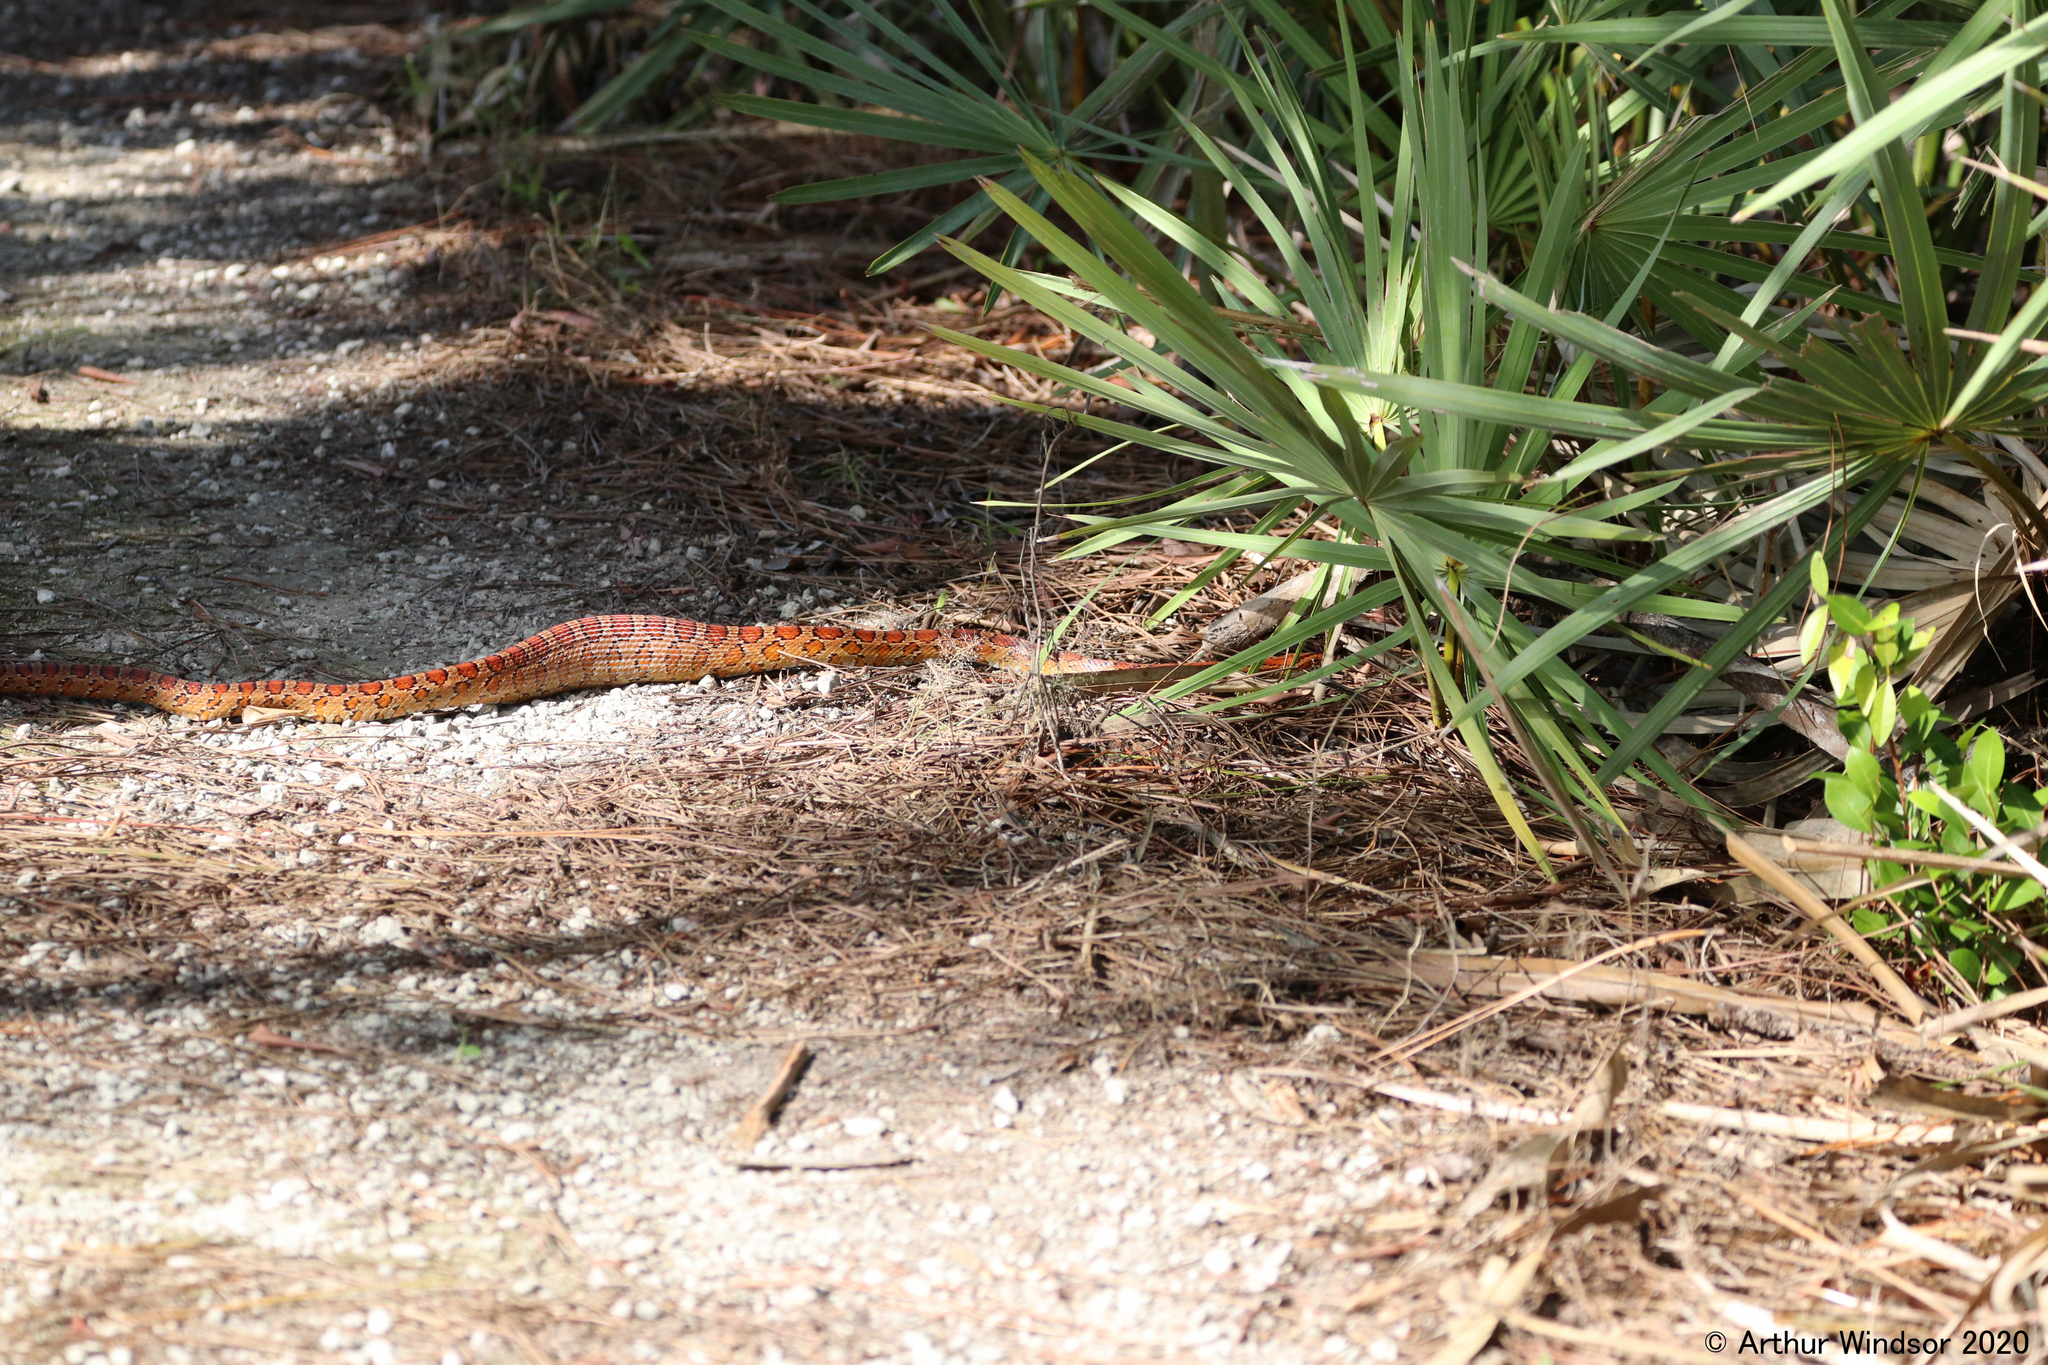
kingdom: Animalia
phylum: Chordata
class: Squamata
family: Colubridae
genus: Pantherophis
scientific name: Pantherophis guttatus
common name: Red cornsnake
